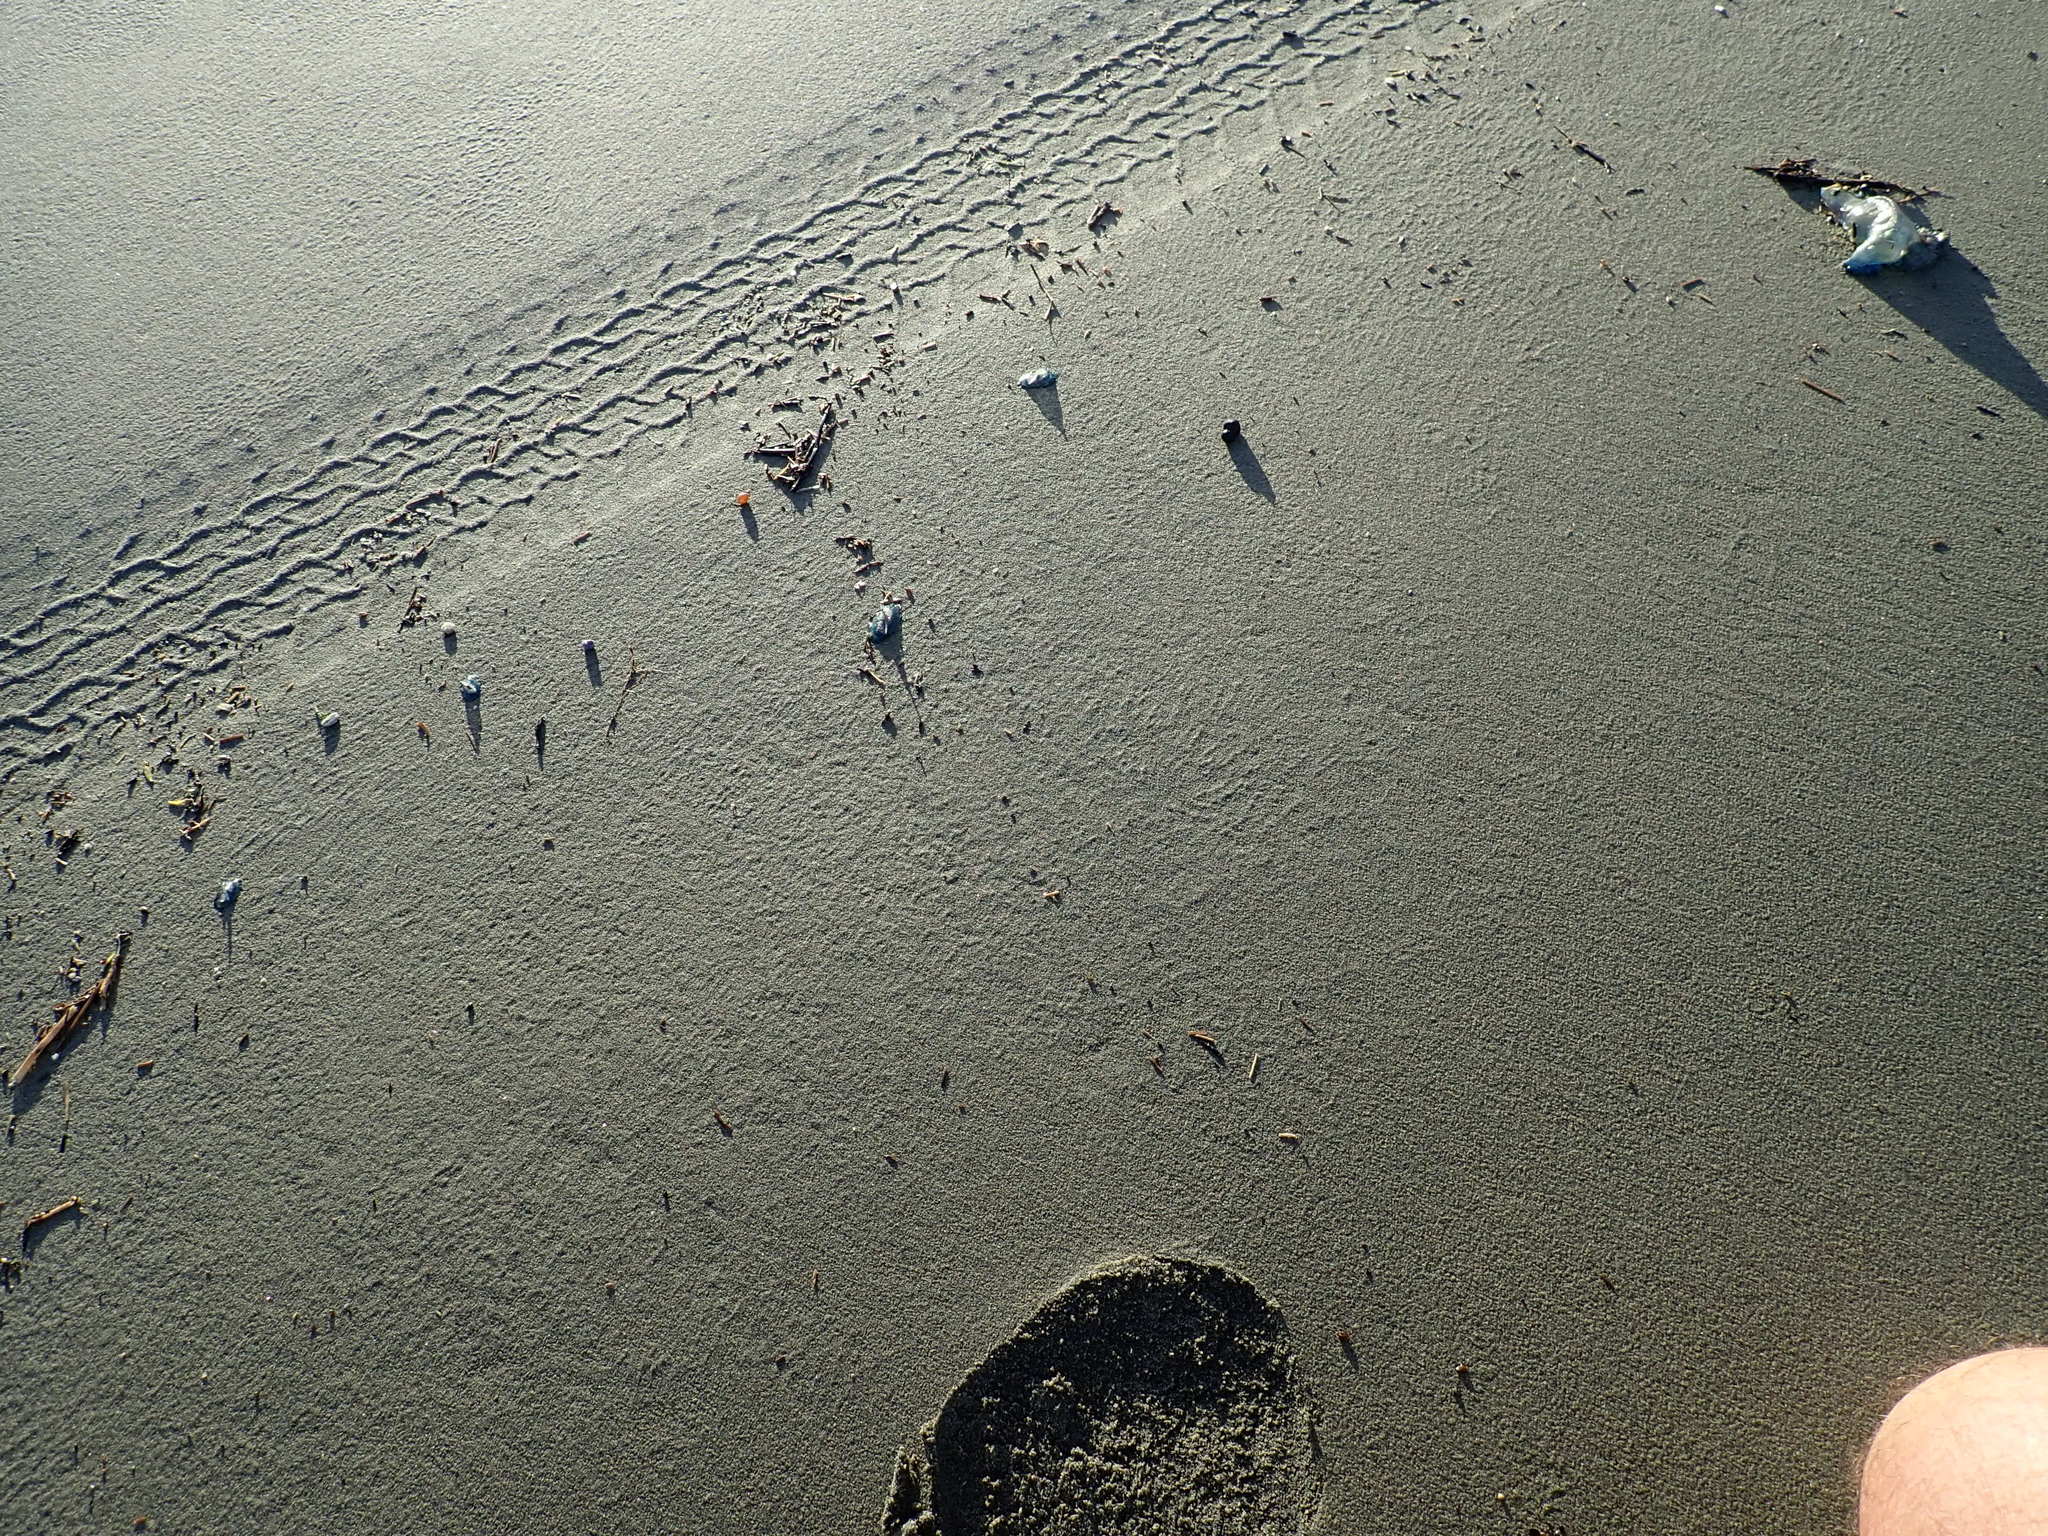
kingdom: Animalia
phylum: Cnidaria
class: Hydrozoa
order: Anthoathecata
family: Porpitidae
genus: Velella
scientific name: Velella velella
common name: By-the-wind-sailor
